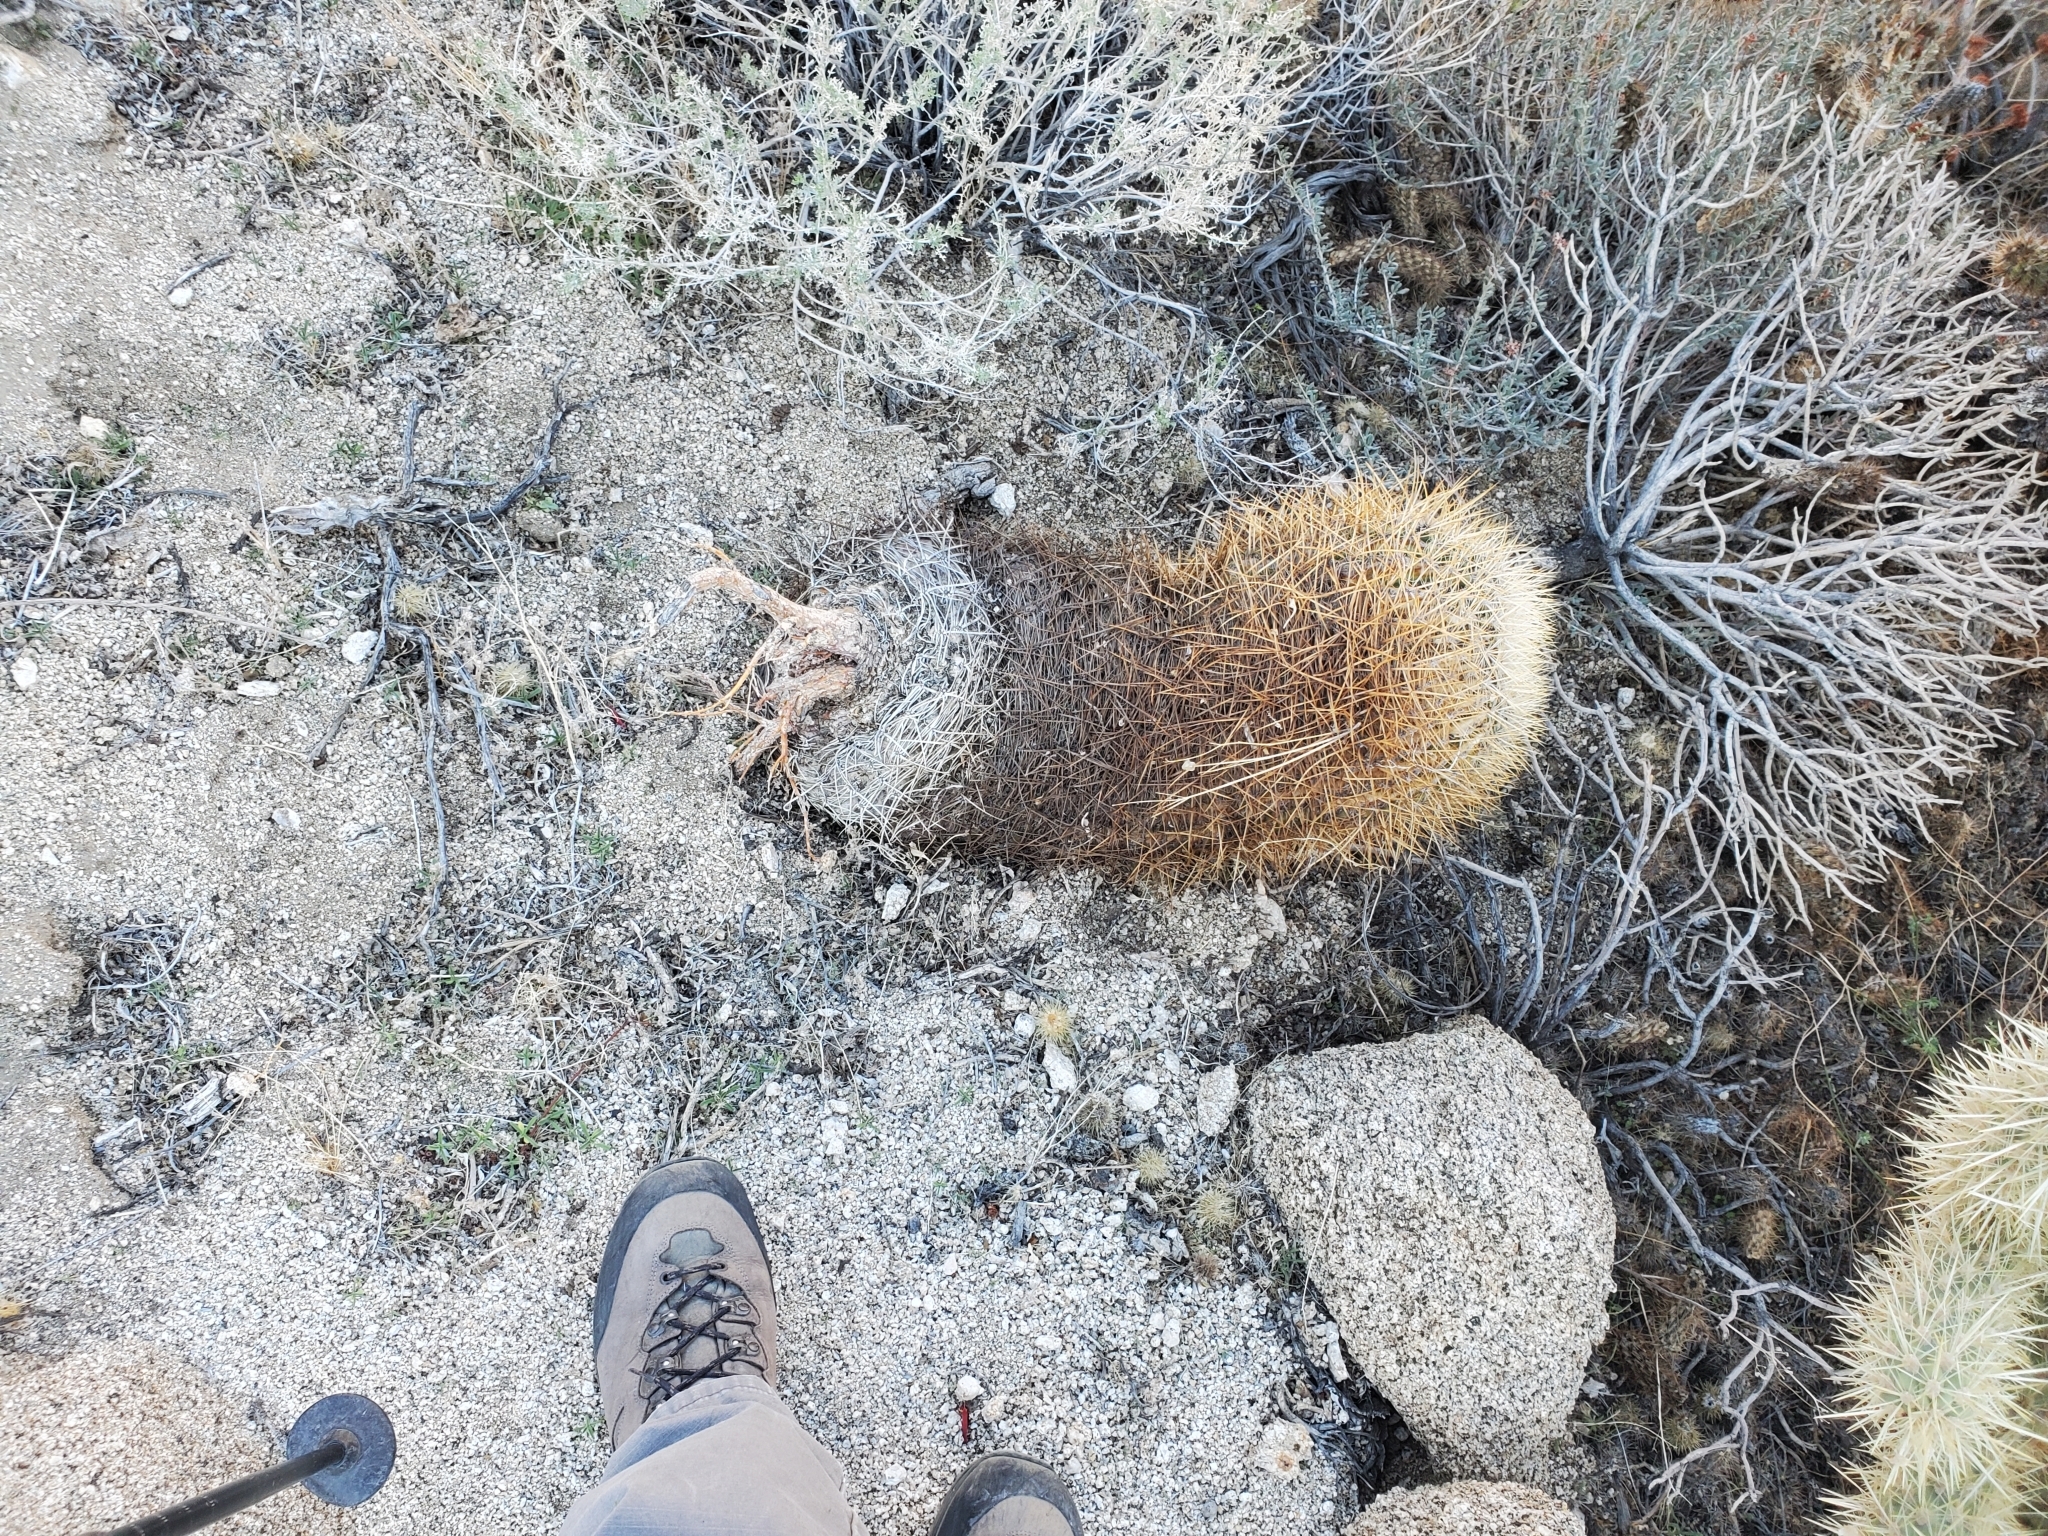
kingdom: Plantae
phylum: Tracheophyta
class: Magnoliopsida
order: Caryophyllales
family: Cactaceae
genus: Ferocactus
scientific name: Ferocactus cylindraceus
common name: California barrel cactus
